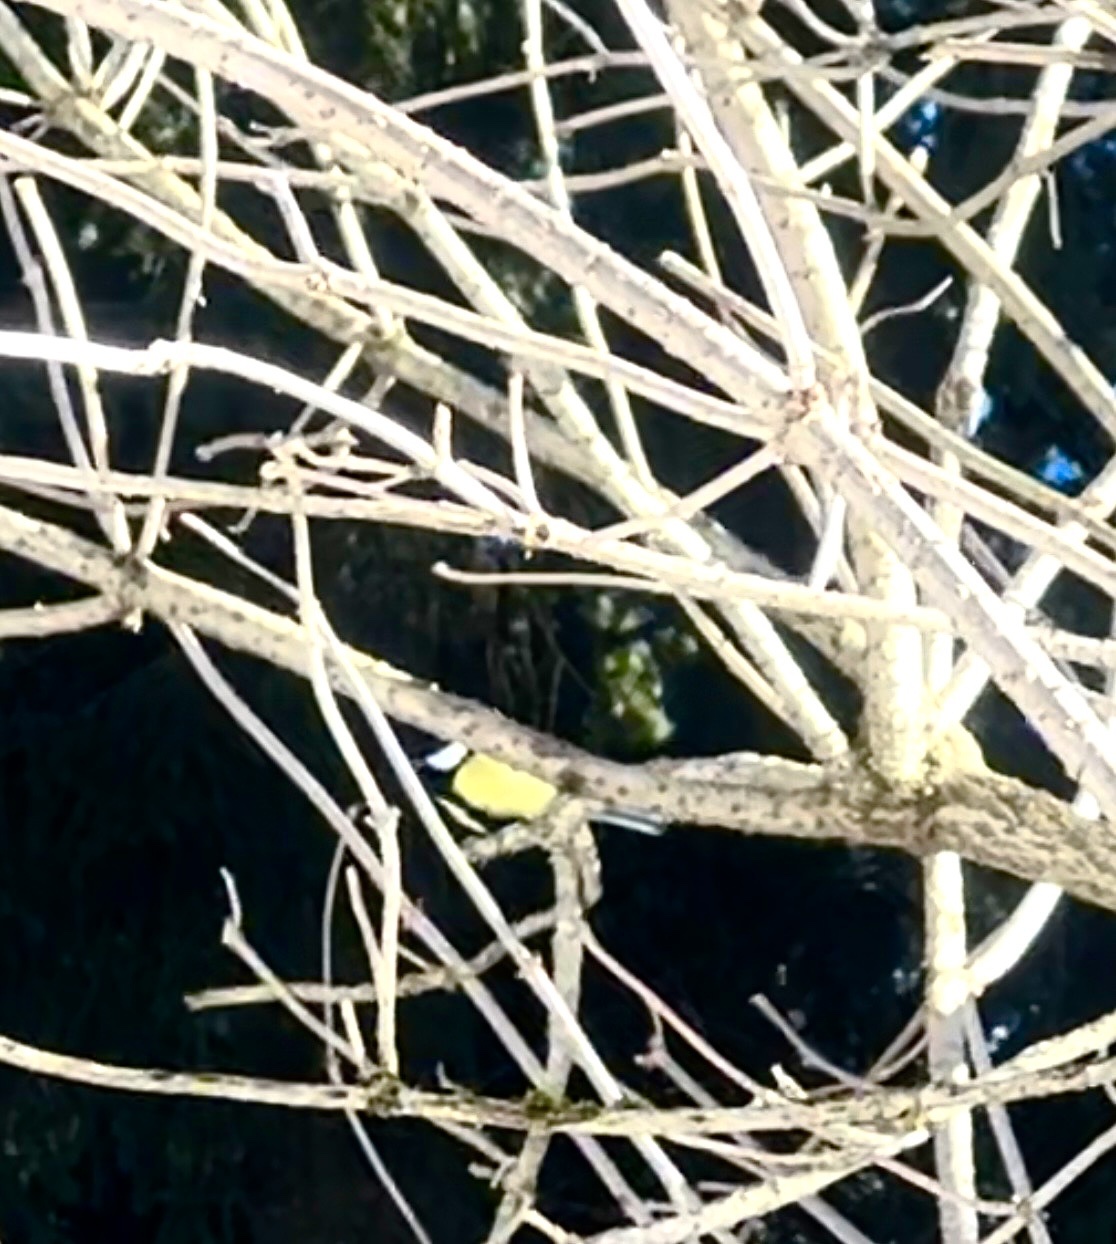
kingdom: Animalia
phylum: Chordata
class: Aves
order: Passeriformes
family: Paridae
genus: Parus
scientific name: Parus major
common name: Great tit
